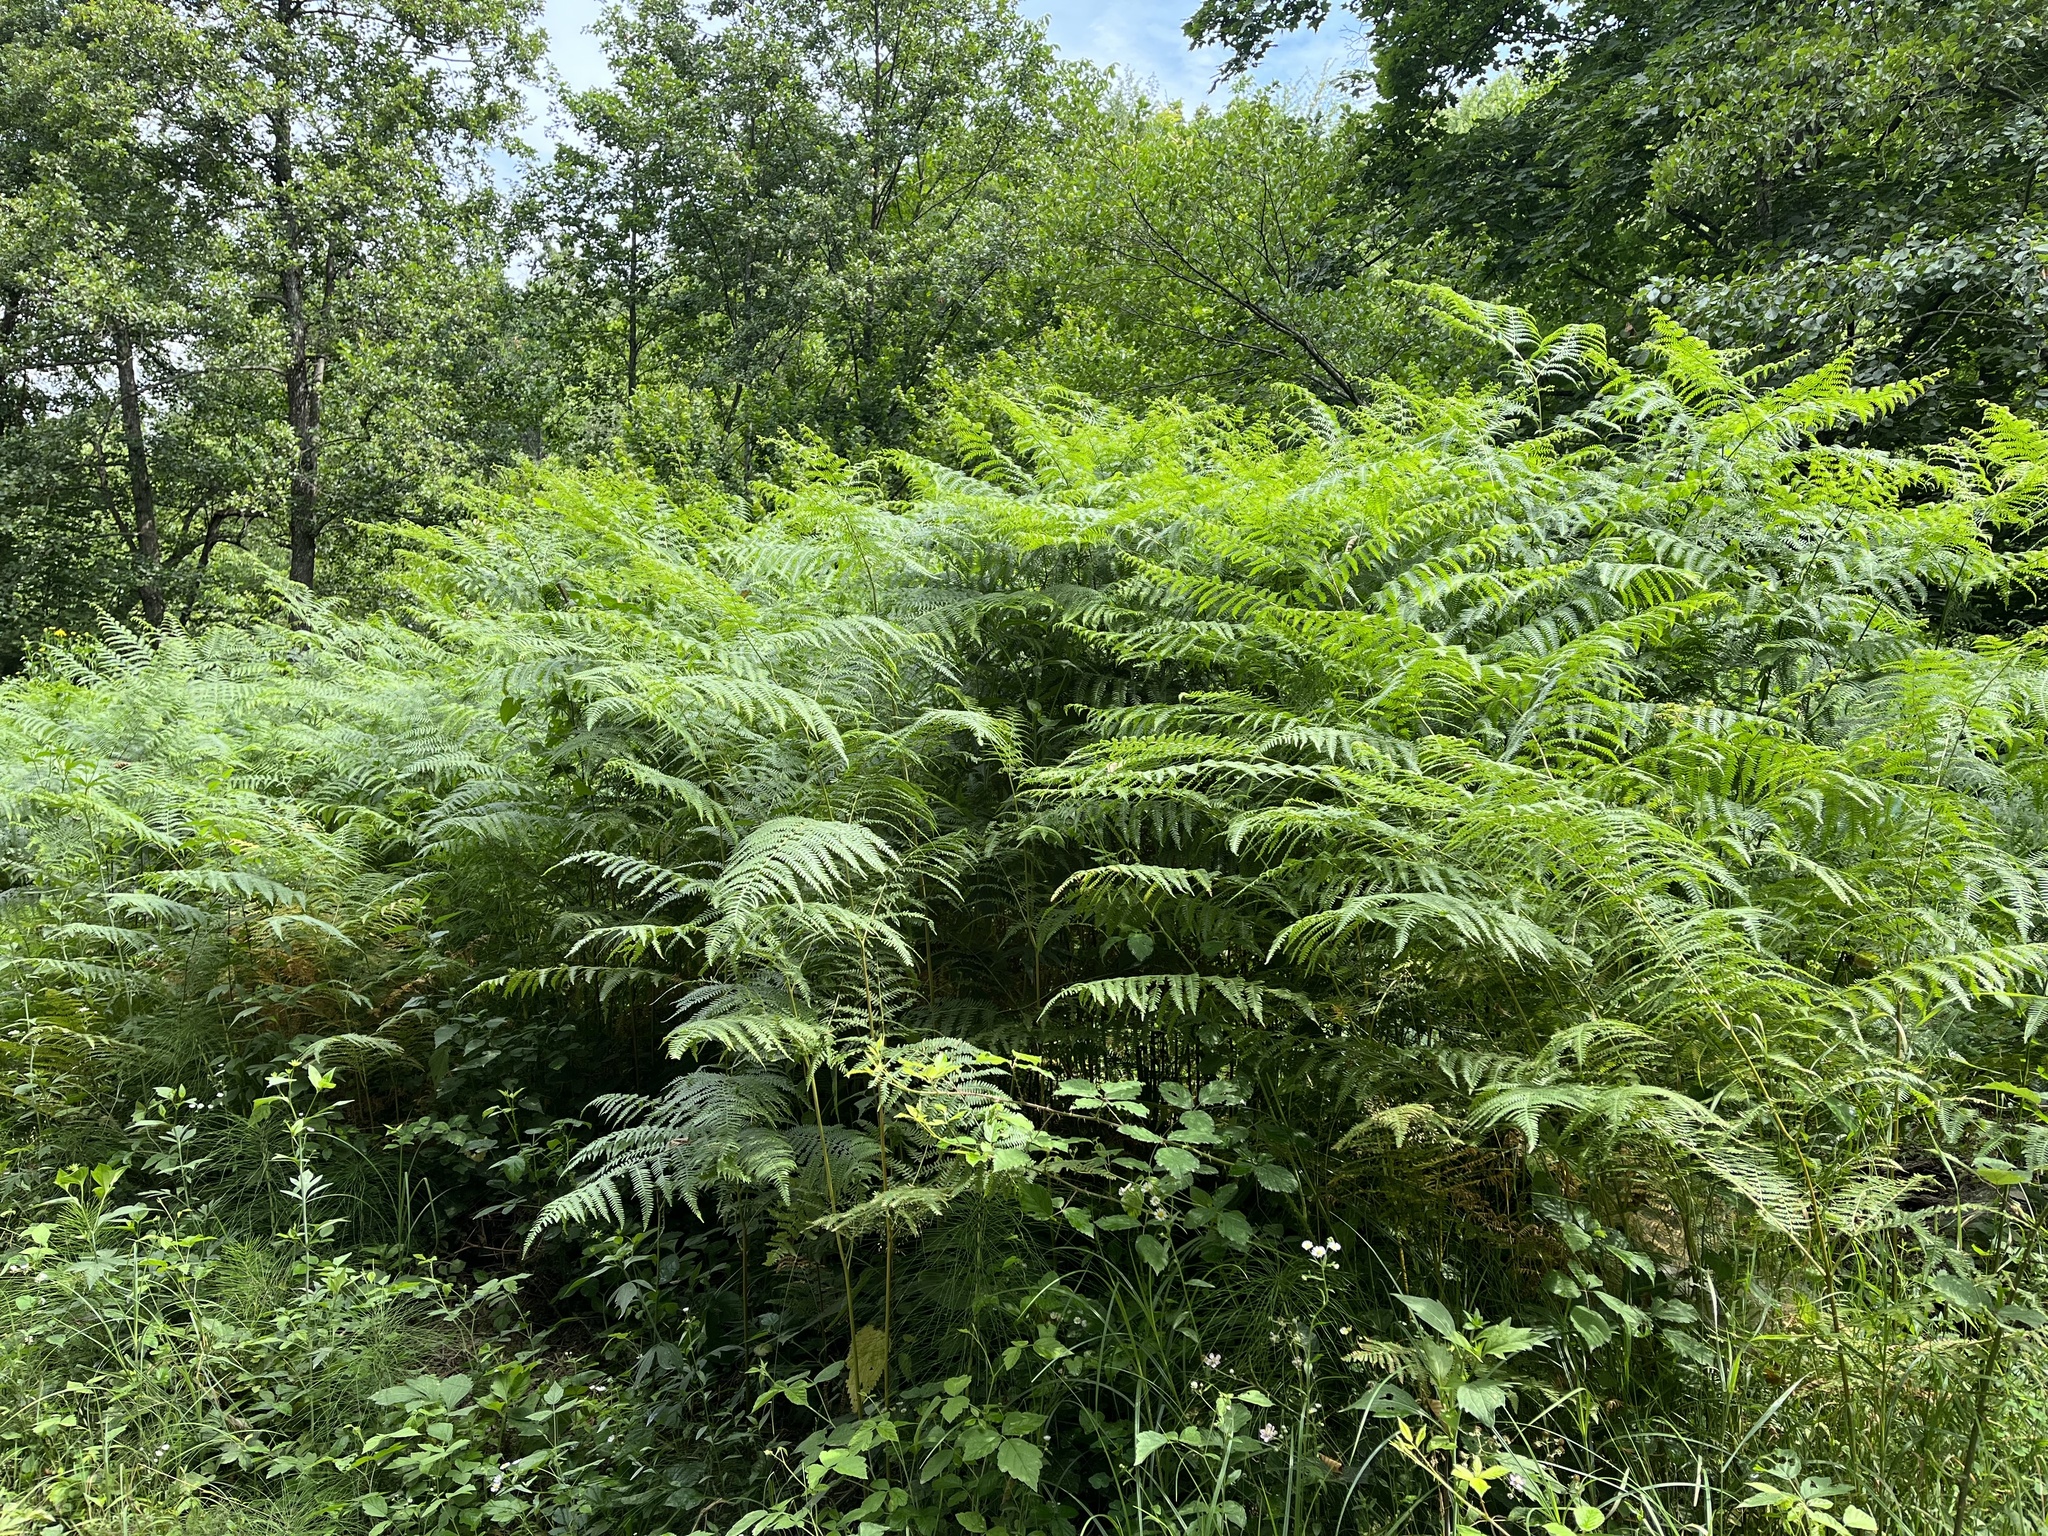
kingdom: Plantae
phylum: Tracheophyta
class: Polypodiopsida
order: Polypodiales
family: Dennstaedtiaceae
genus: Pteridium
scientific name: Pteridium aquilinum
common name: Bracken
